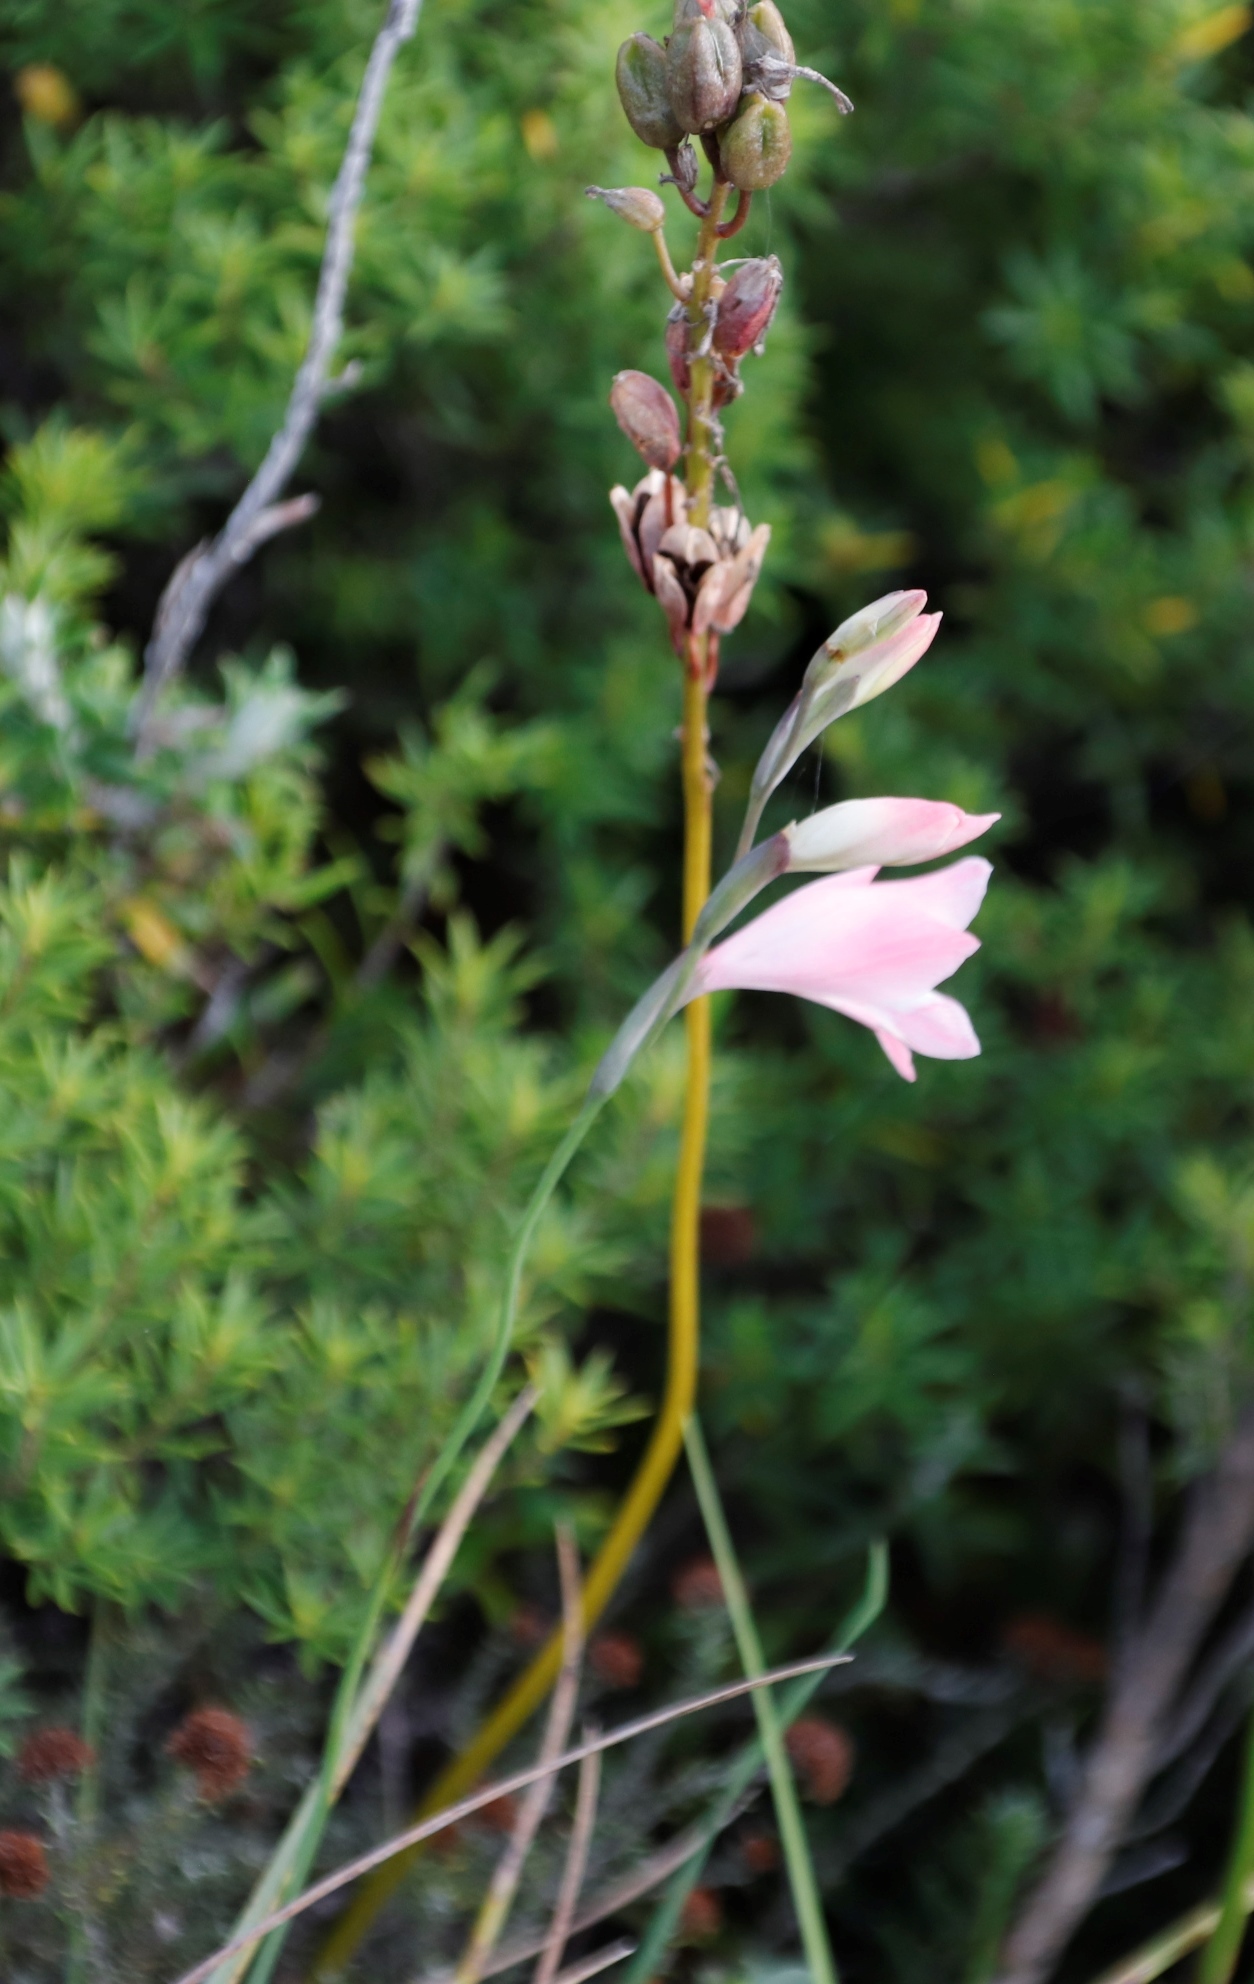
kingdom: Plantae
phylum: Tracheophyta
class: Liliopsida
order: Asparagales
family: Iridaceae
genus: Gladiolus
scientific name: Gladiolus brevifolius
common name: March pypie
